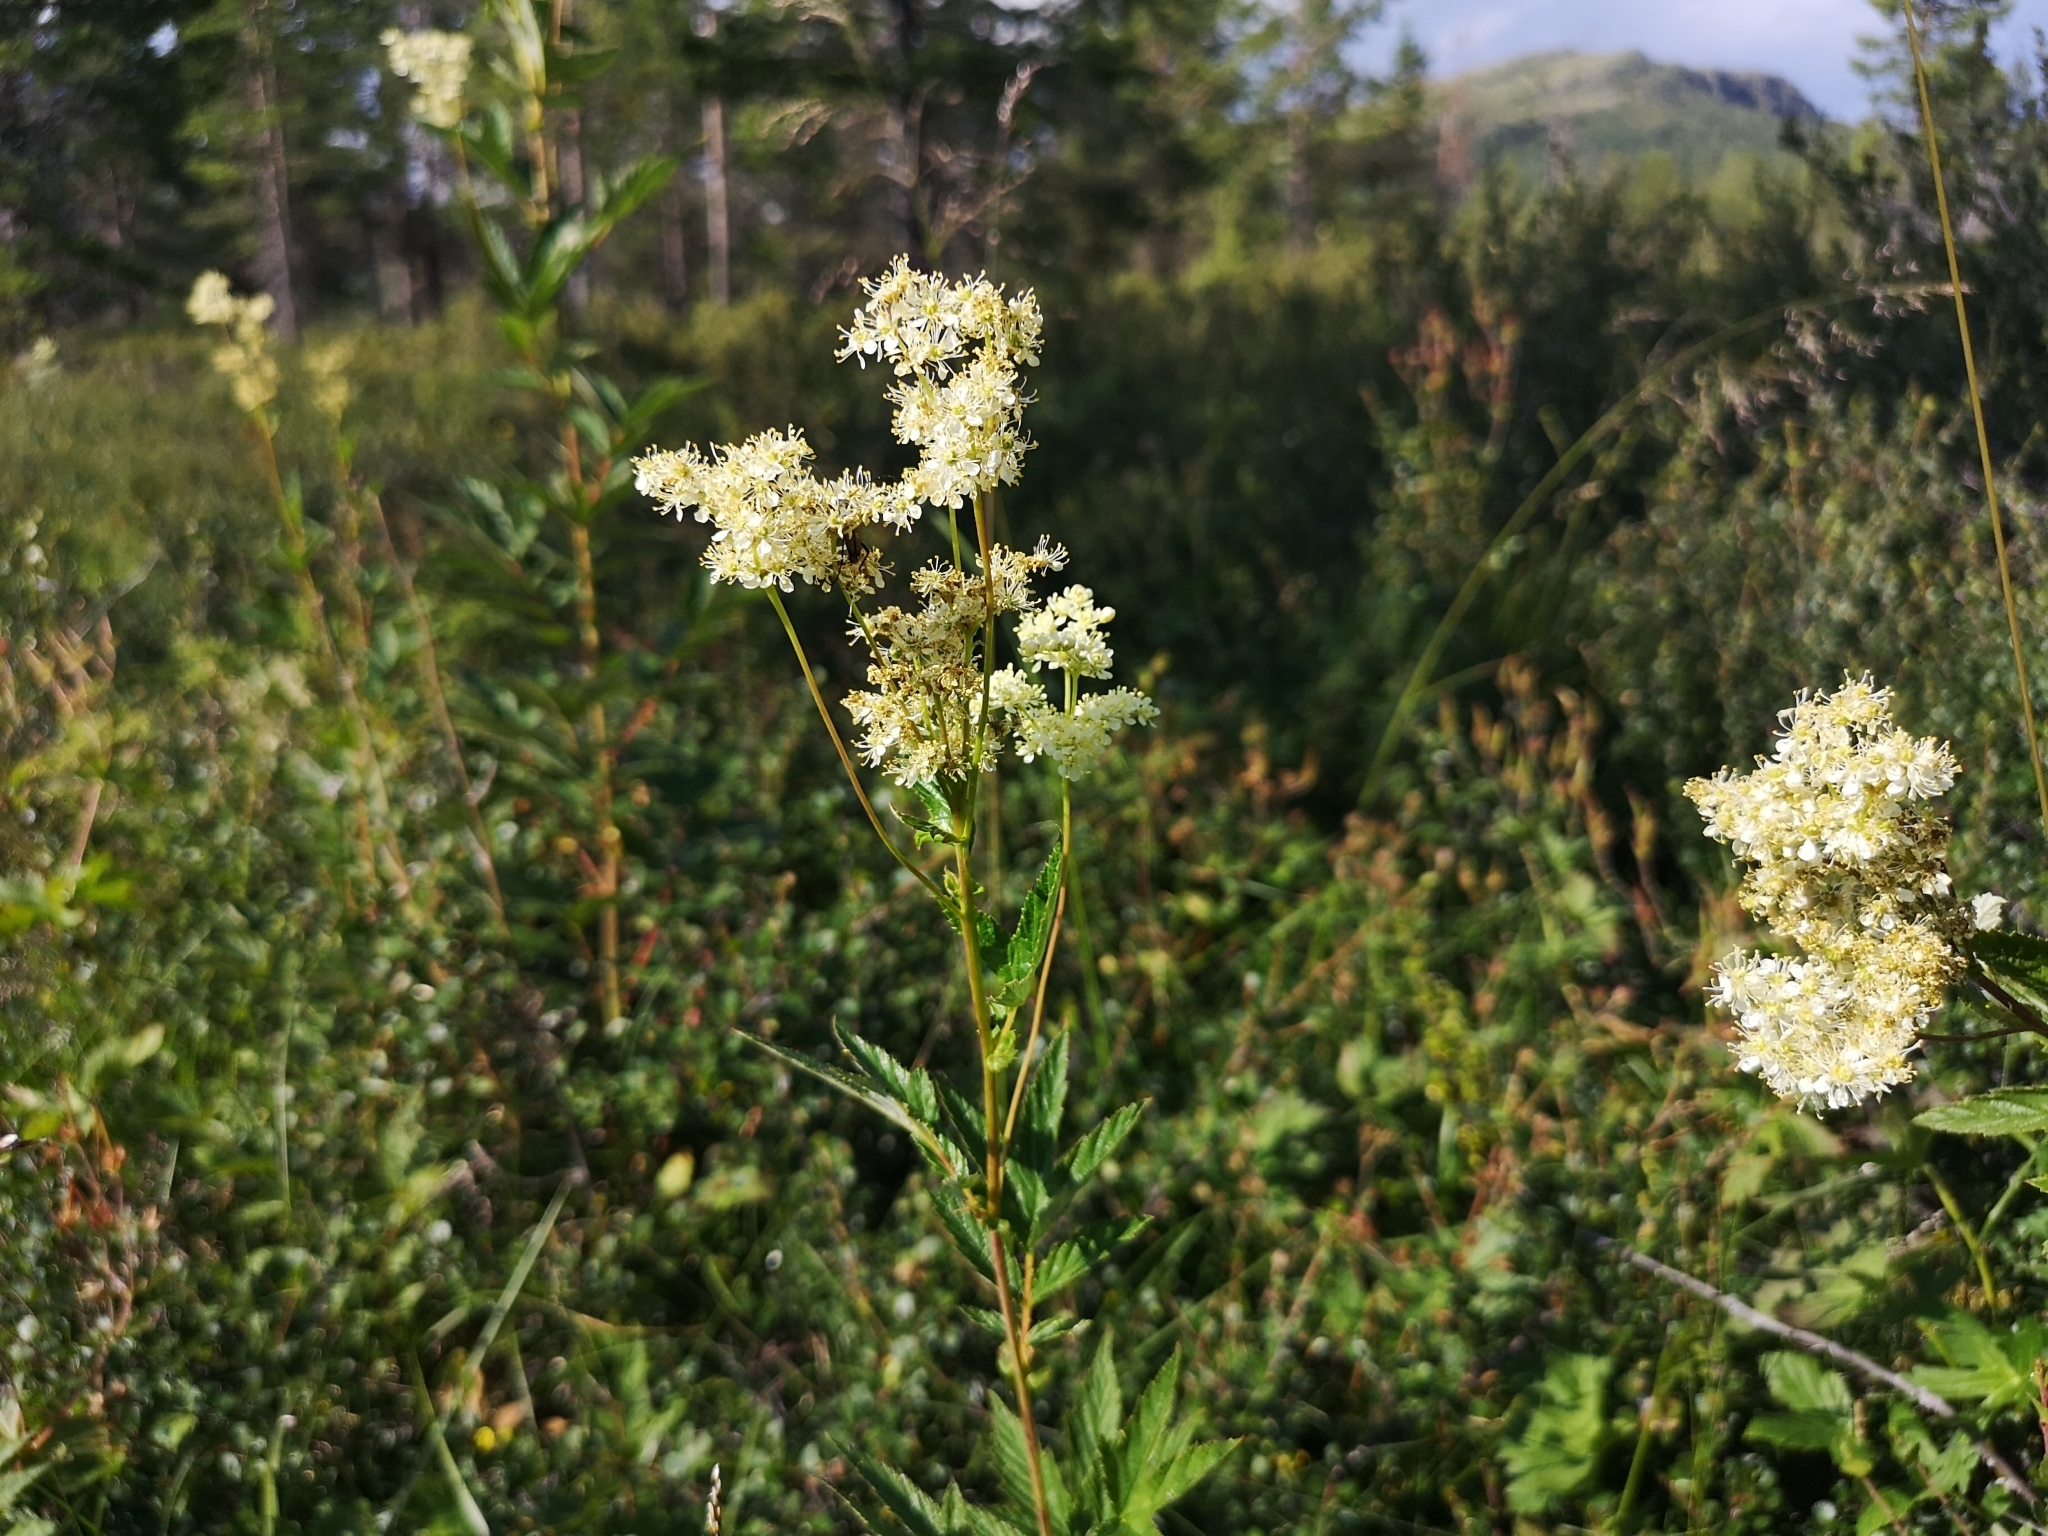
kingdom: Plantae
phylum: Tracheophyta
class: Magnoliopsida
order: Rosales
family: Rosaceae
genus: Filipendula
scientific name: Filipendula ulmaria
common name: Meadowsweet
